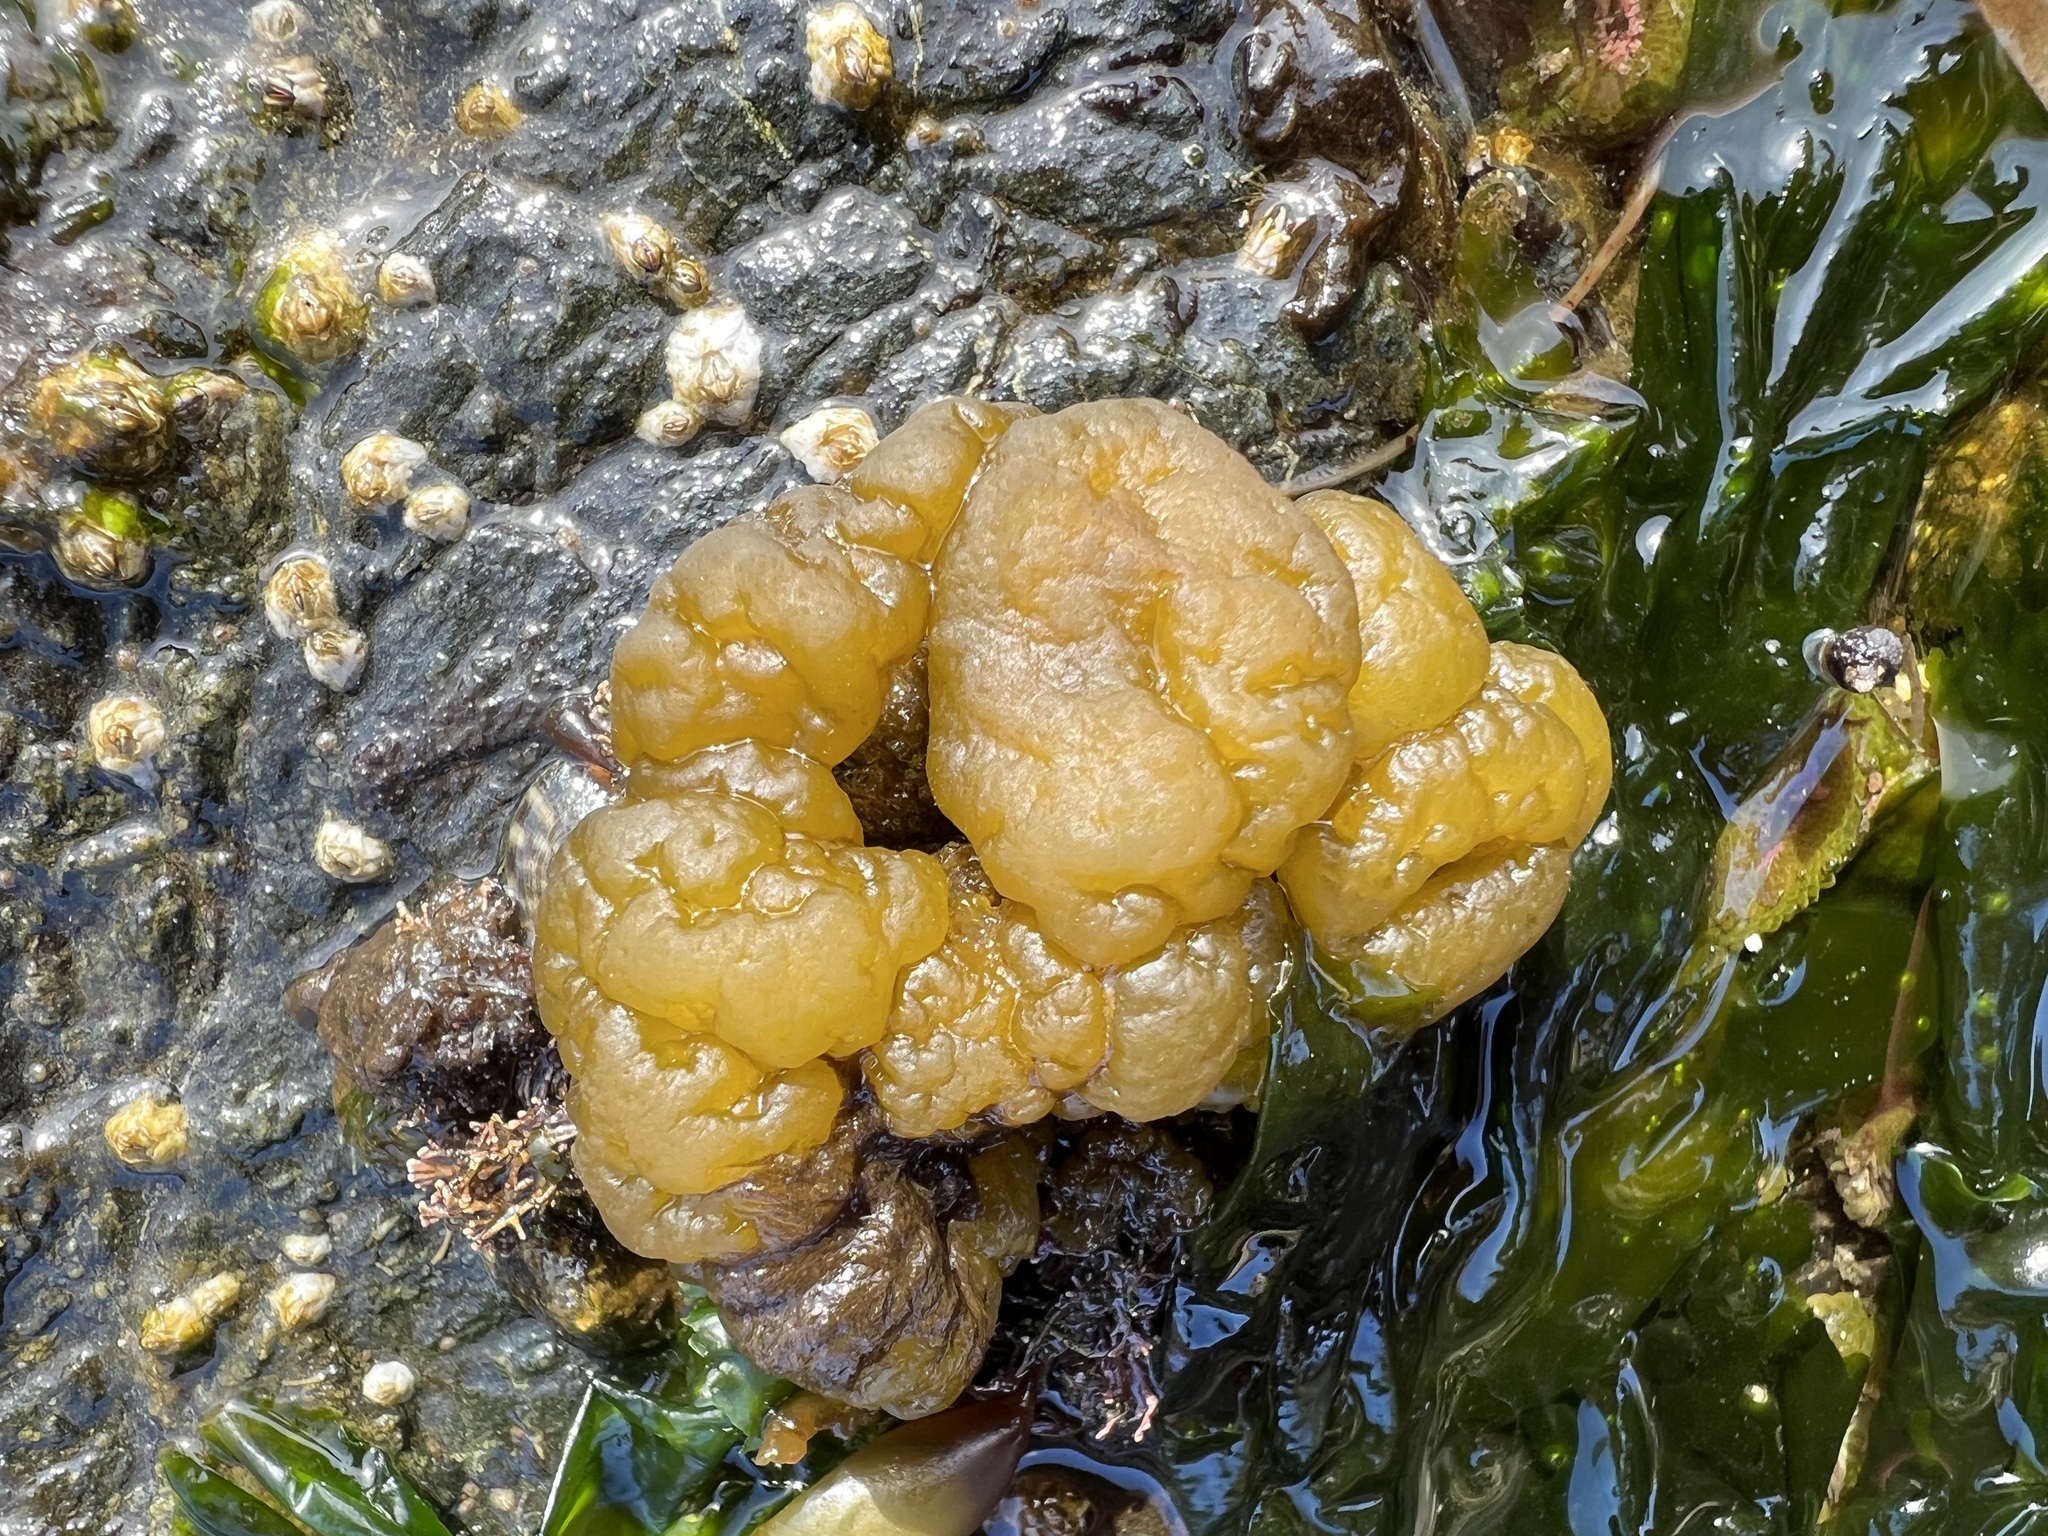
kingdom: Chromista
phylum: Ochrophyta
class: Phaeophyceae
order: Ectocarpales
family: Chordariaceae
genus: Leathesia
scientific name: Leathesia marina
